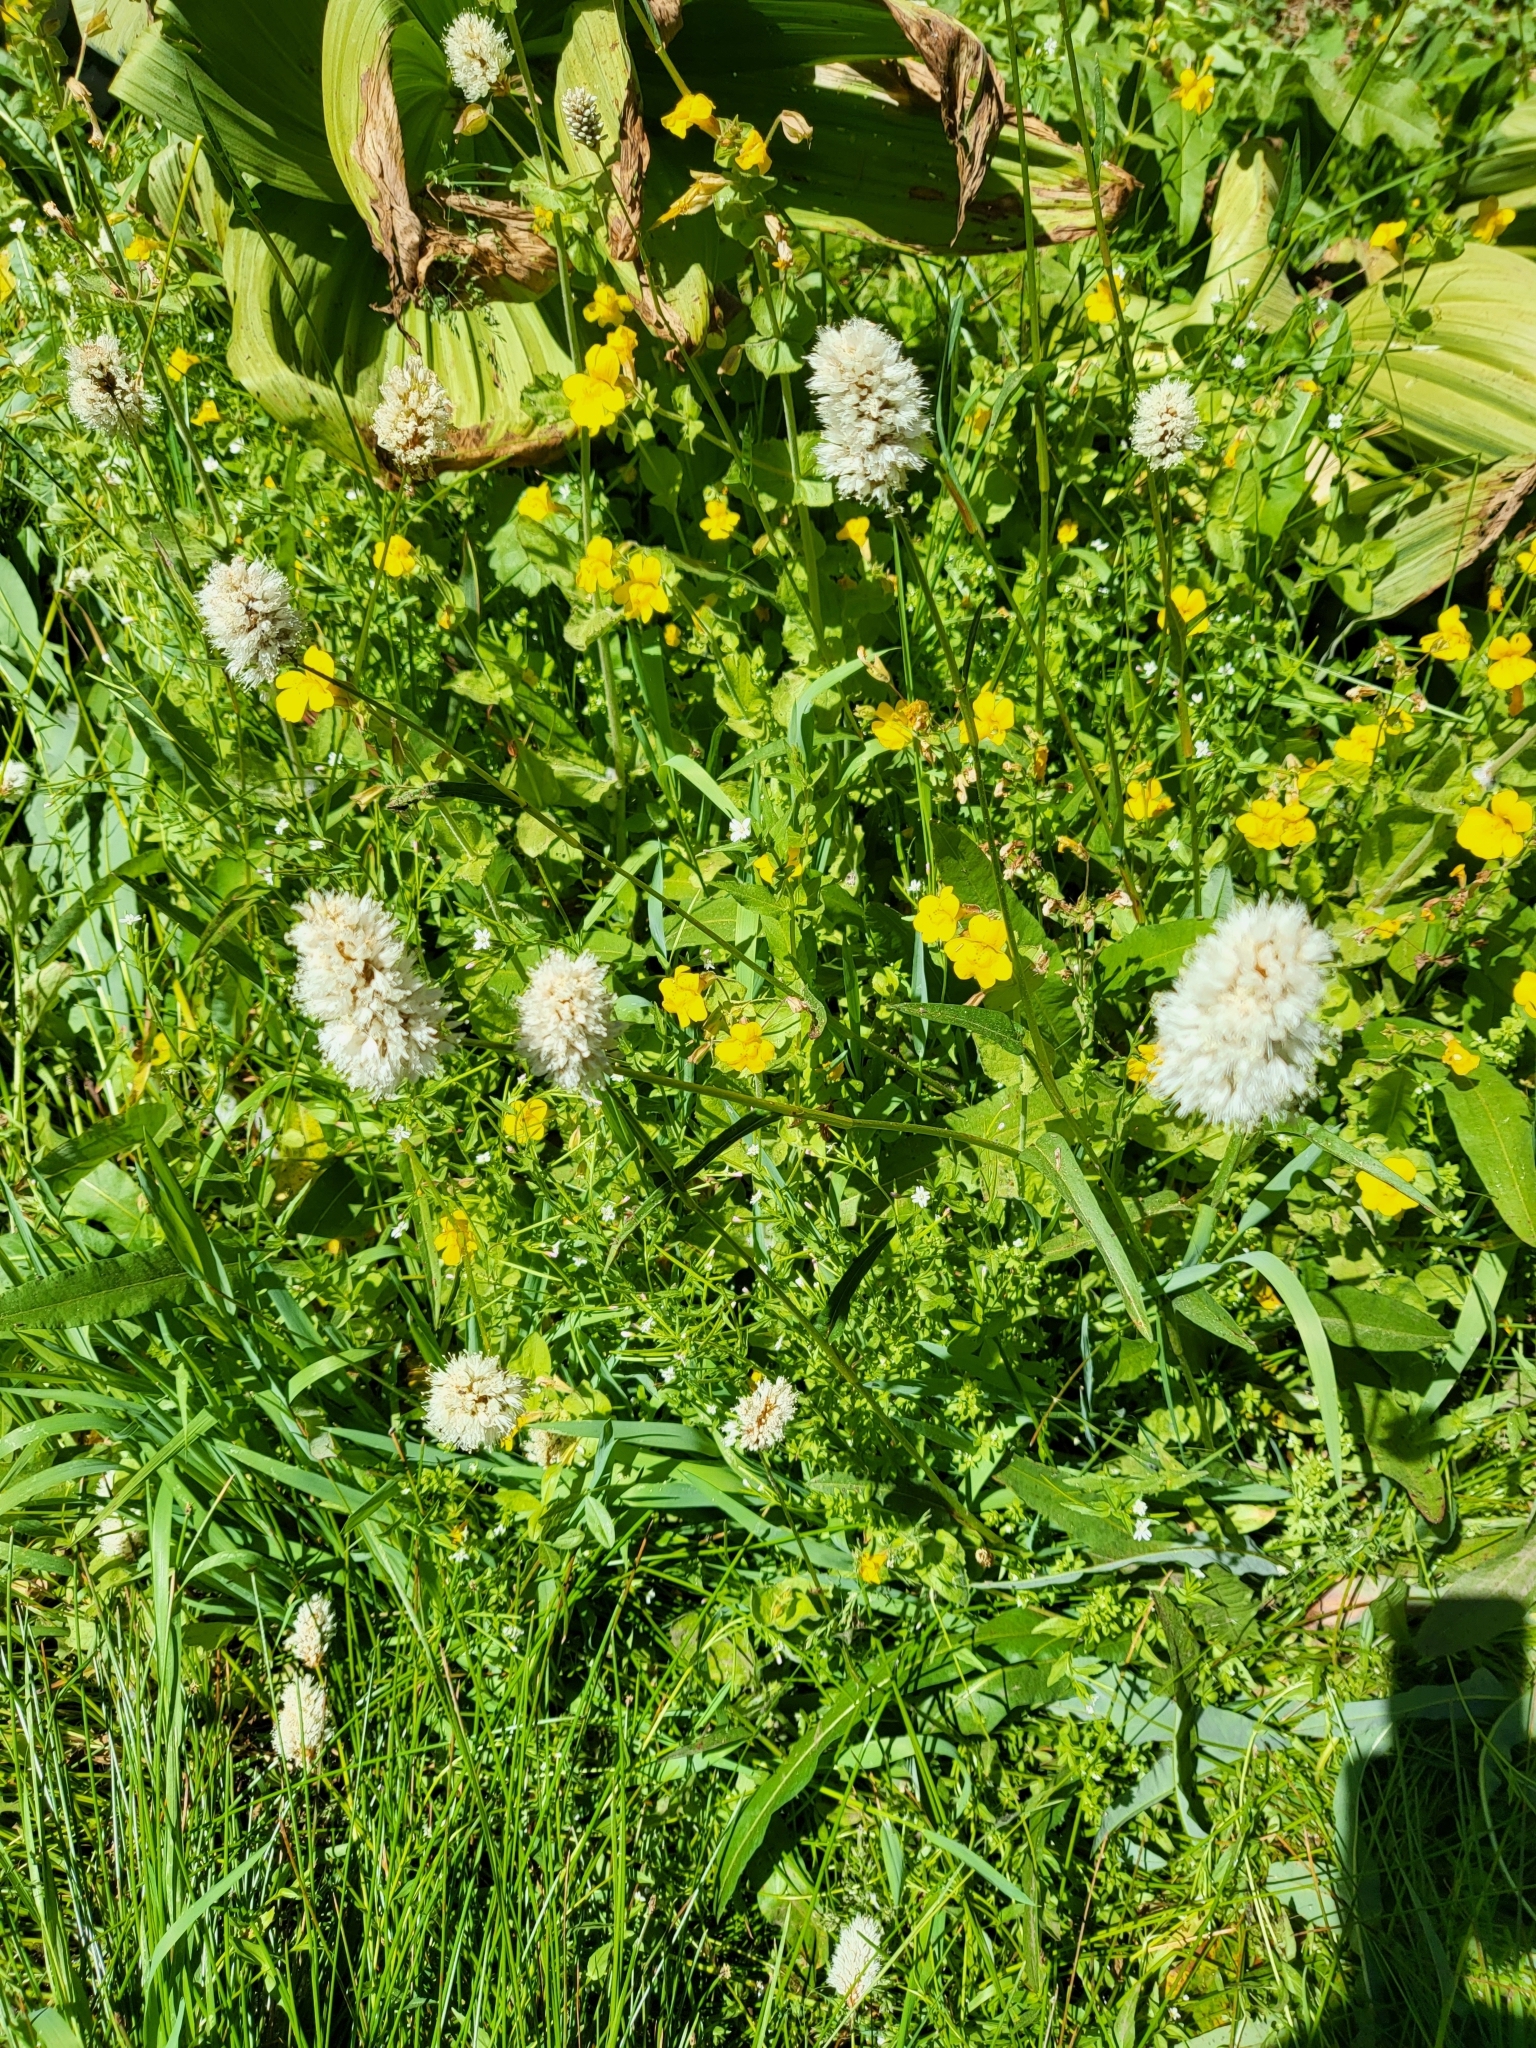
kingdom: Plantae
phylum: Tracheophyta
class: Magnoliopsida
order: Caryophyllales
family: Polygonaceae
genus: Bistorta
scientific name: Bistorta bistortoides
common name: American bistort
